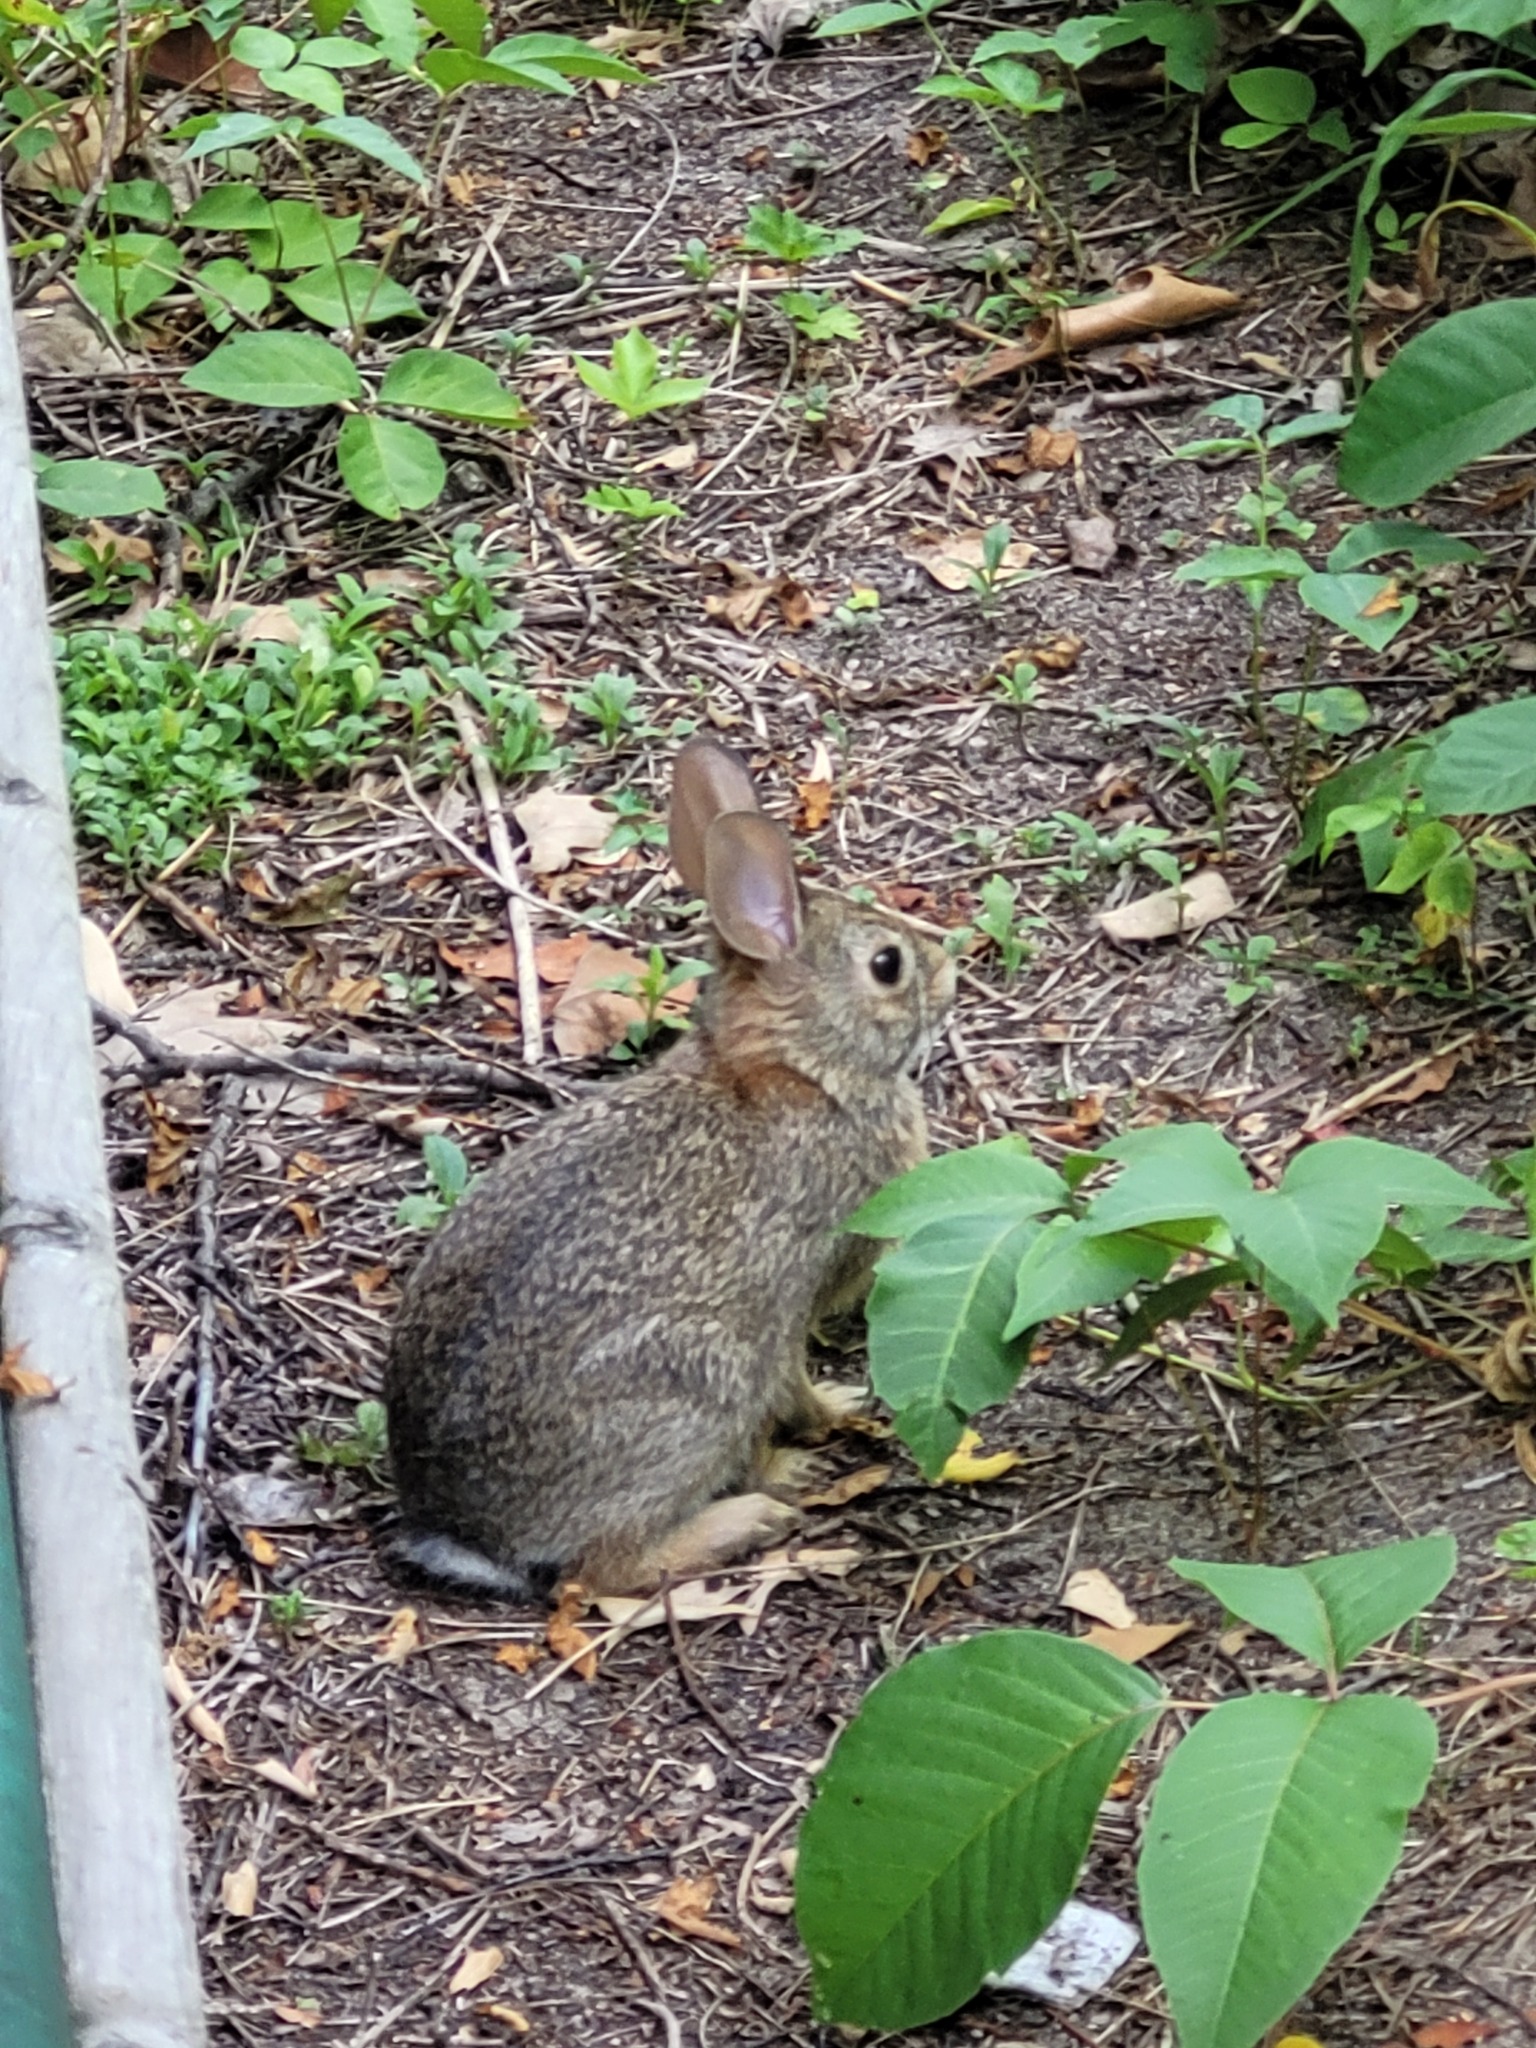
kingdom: Animalia
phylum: Chordata
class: Mammalia
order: Lagomorpha
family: Leporidae
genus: Sylvilagus
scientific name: Sylvilagus floridanus
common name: Eastern cottontail
